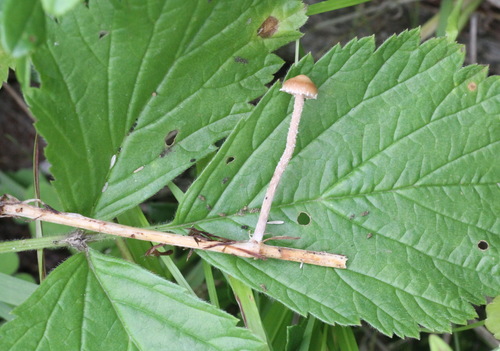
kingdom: Fungi
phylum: Basidiomycota
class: Agaricomycetes
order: Agaricales
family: Strophariaceae
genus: Deconica
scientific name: Deconica crobula
